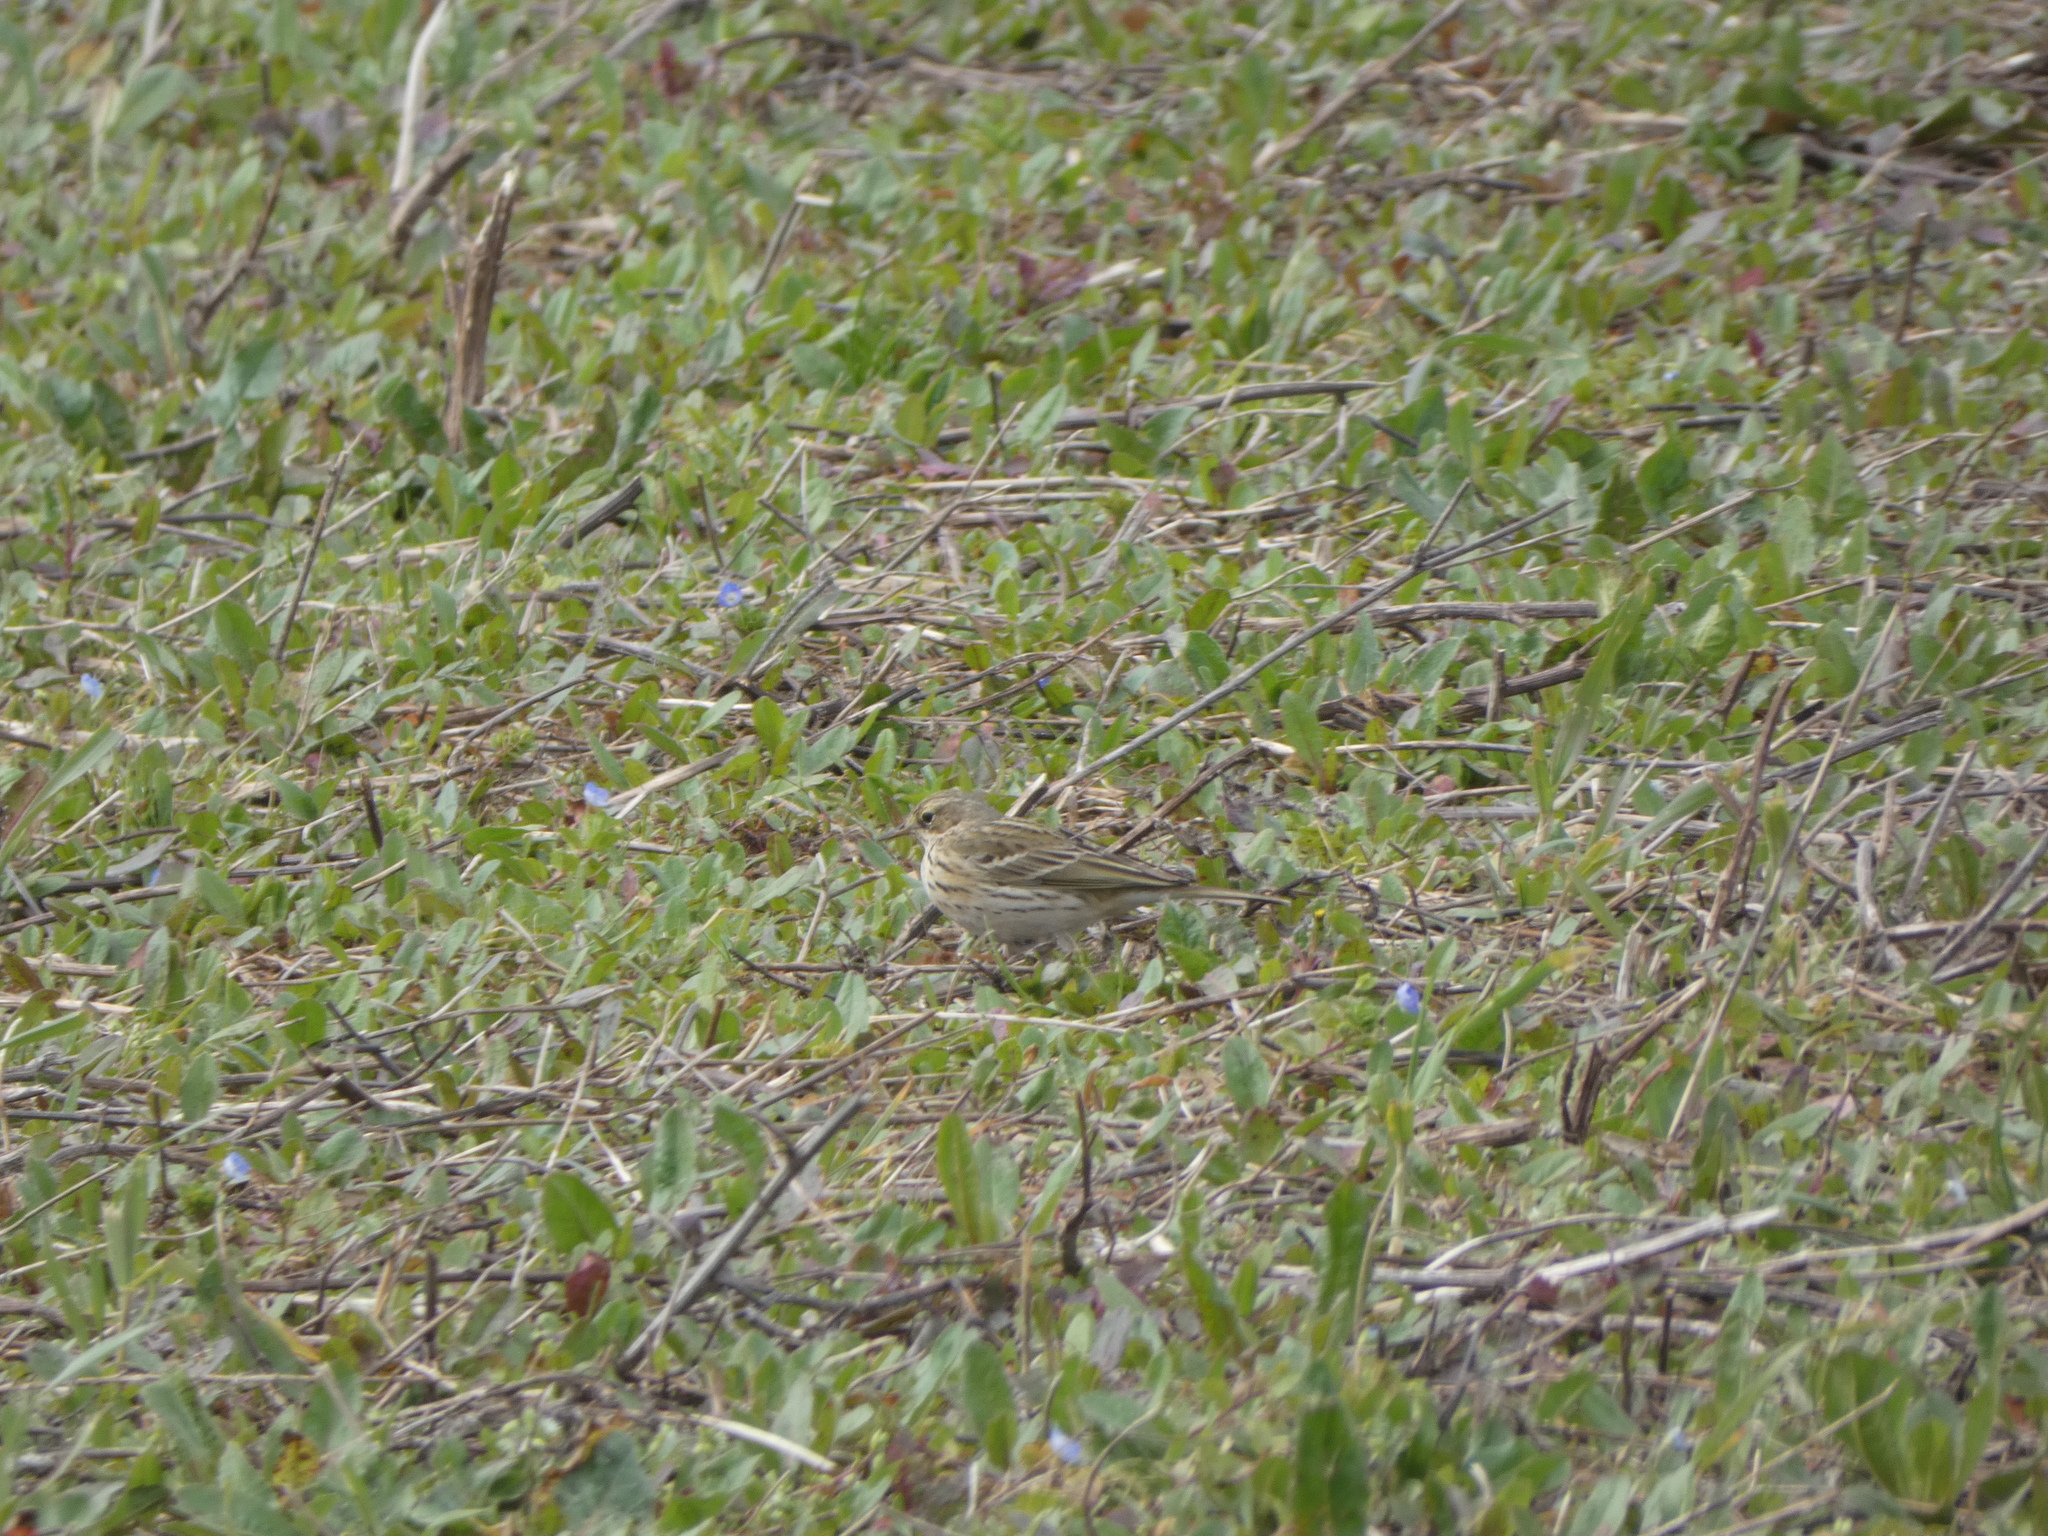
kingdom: Animalia
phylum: Chordata
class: Aves
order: Passeriformes
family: Motacillidae
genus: Anthus
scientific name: Anthus pratensis
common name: Meadow pipit
